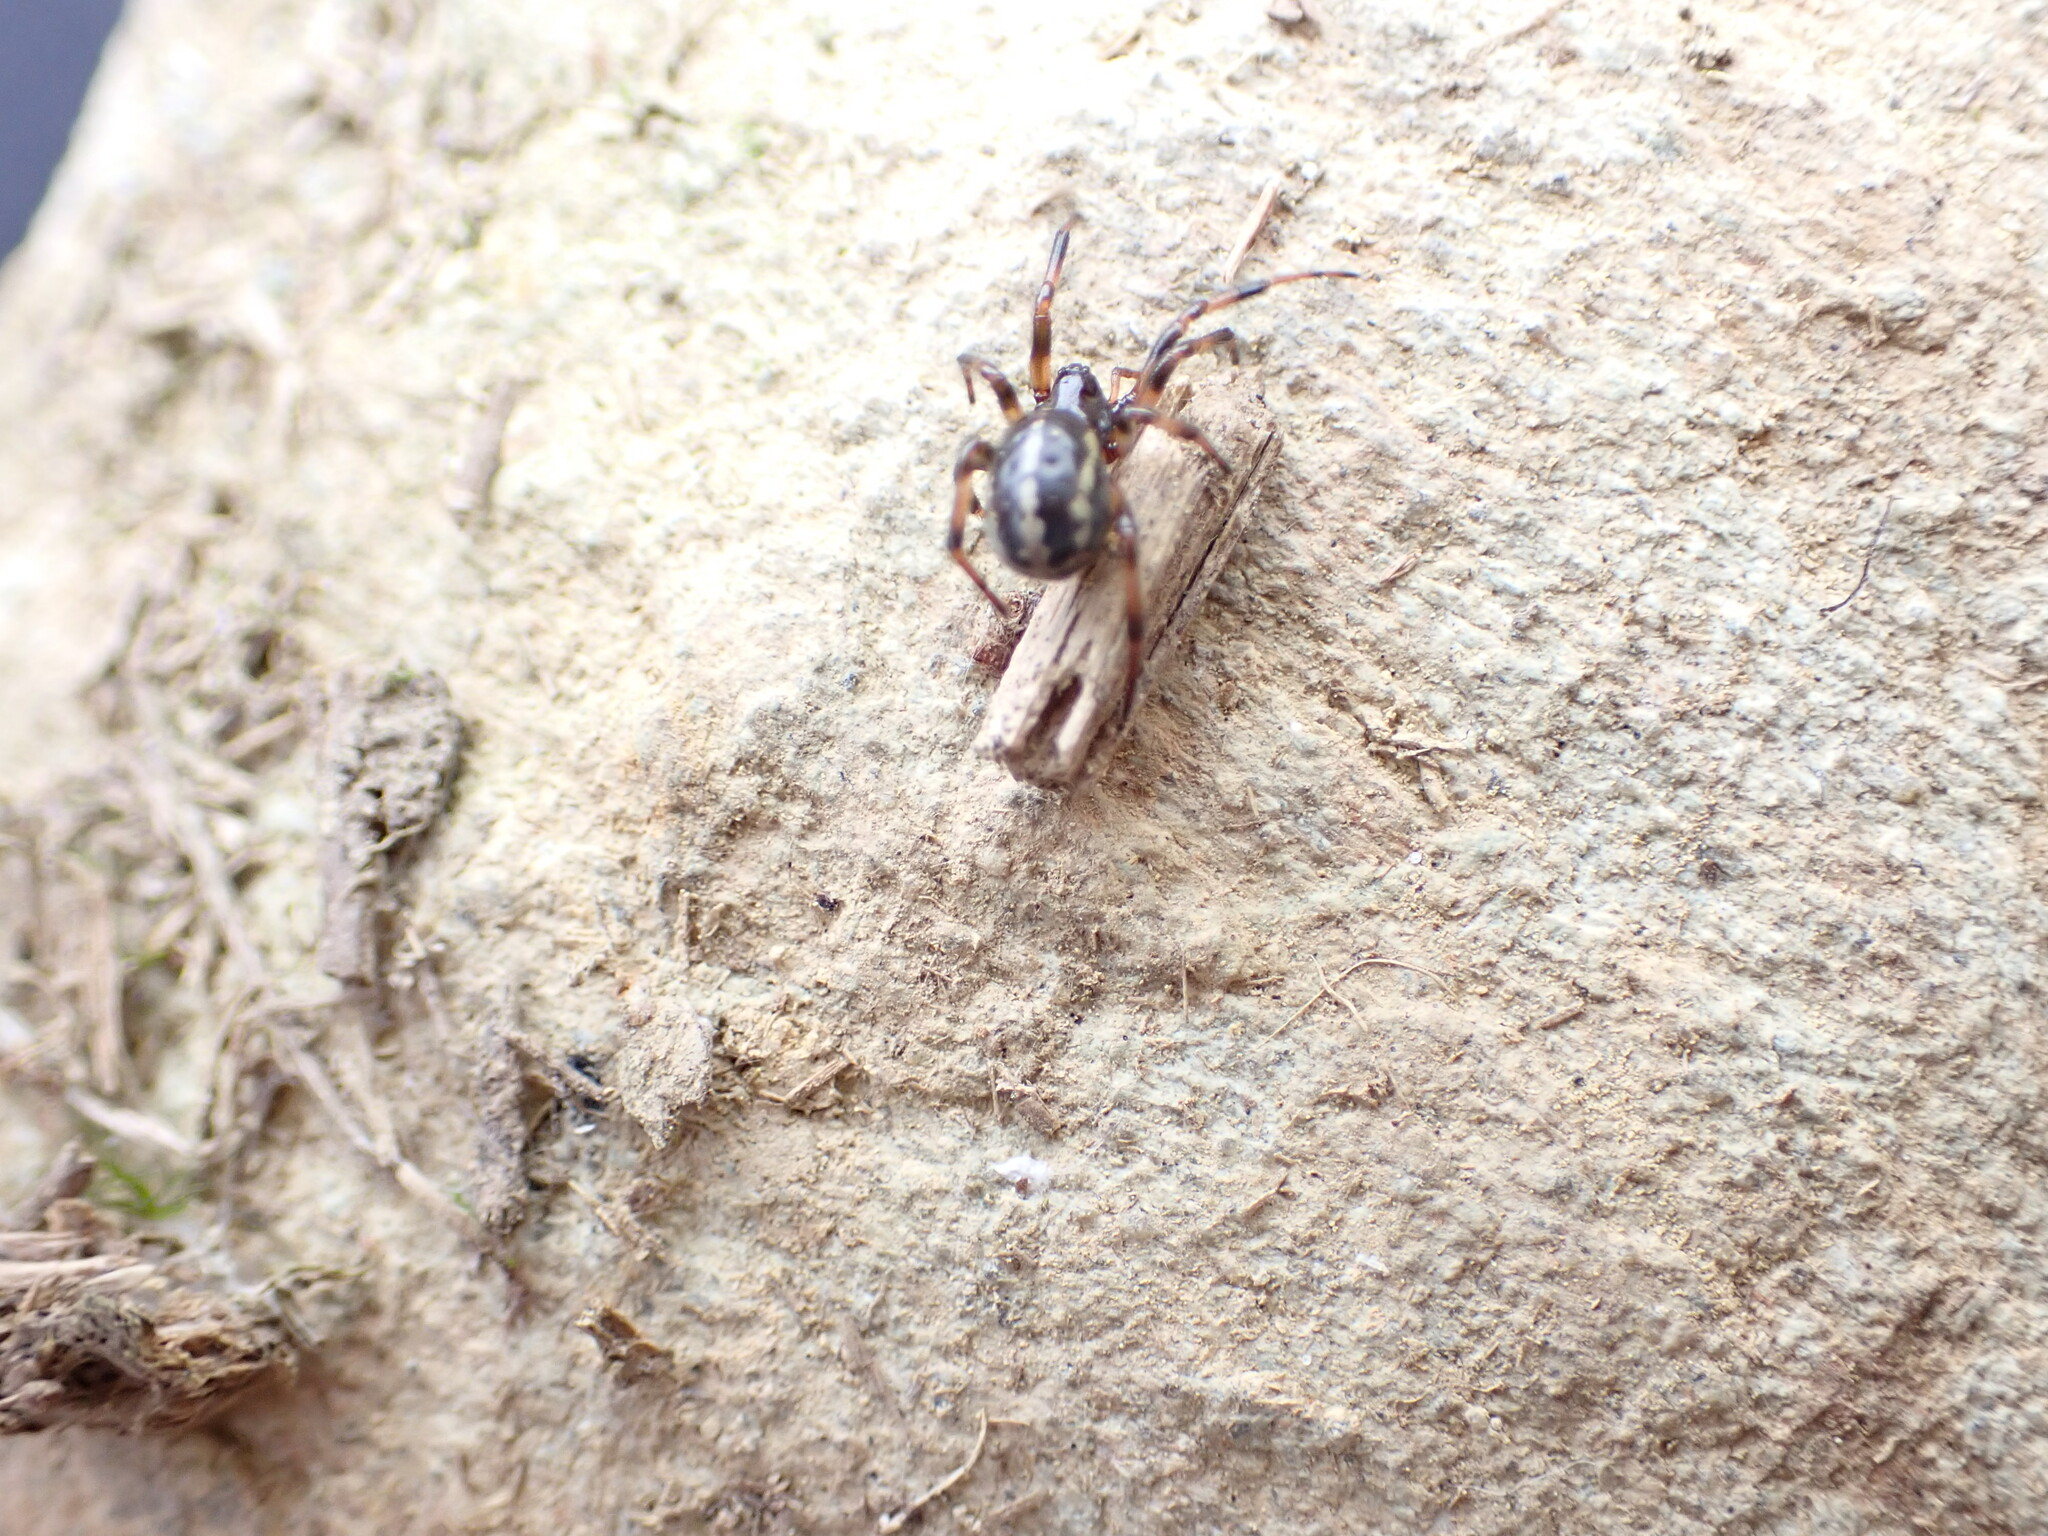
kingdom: Animalia
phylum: Arthropoda
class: Arachnida
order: Araneae
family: Theridiidae
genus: Steatoda
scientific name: Steatoda lepida
